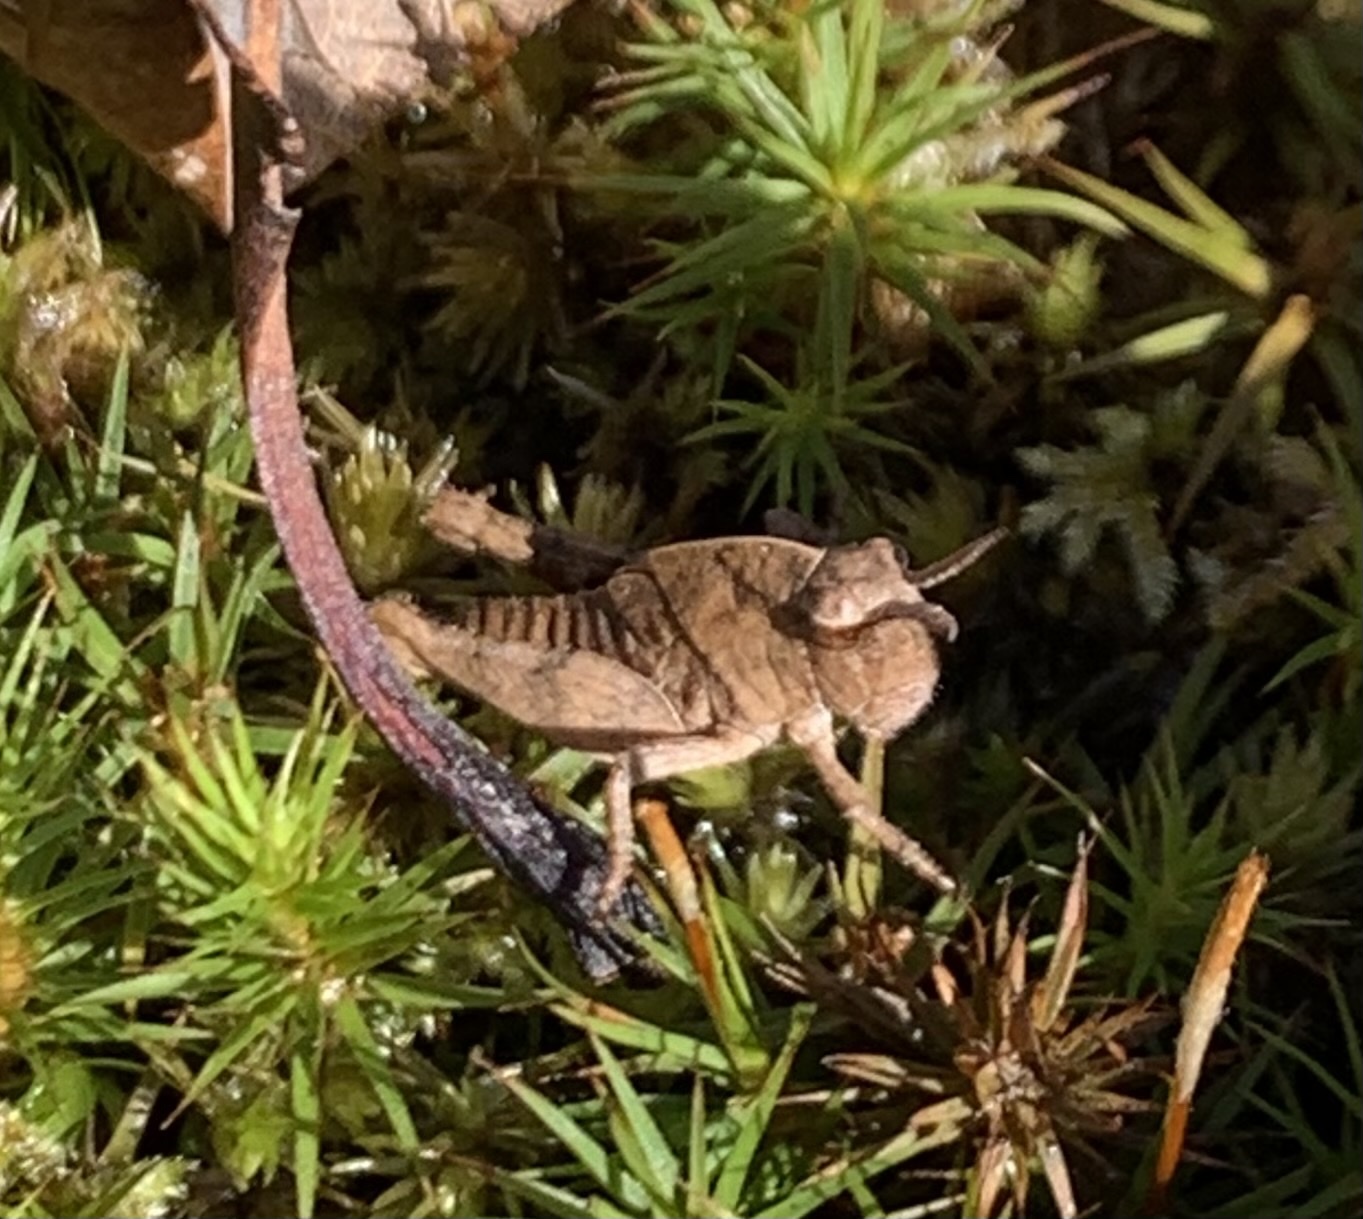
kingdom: Animalia
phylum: Arthropoda
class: Insecta
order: Orthoptera
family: Acrididae
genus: Chortophaga
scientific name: Chortophaga viridifasciata
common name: Green-striped grasshopper
